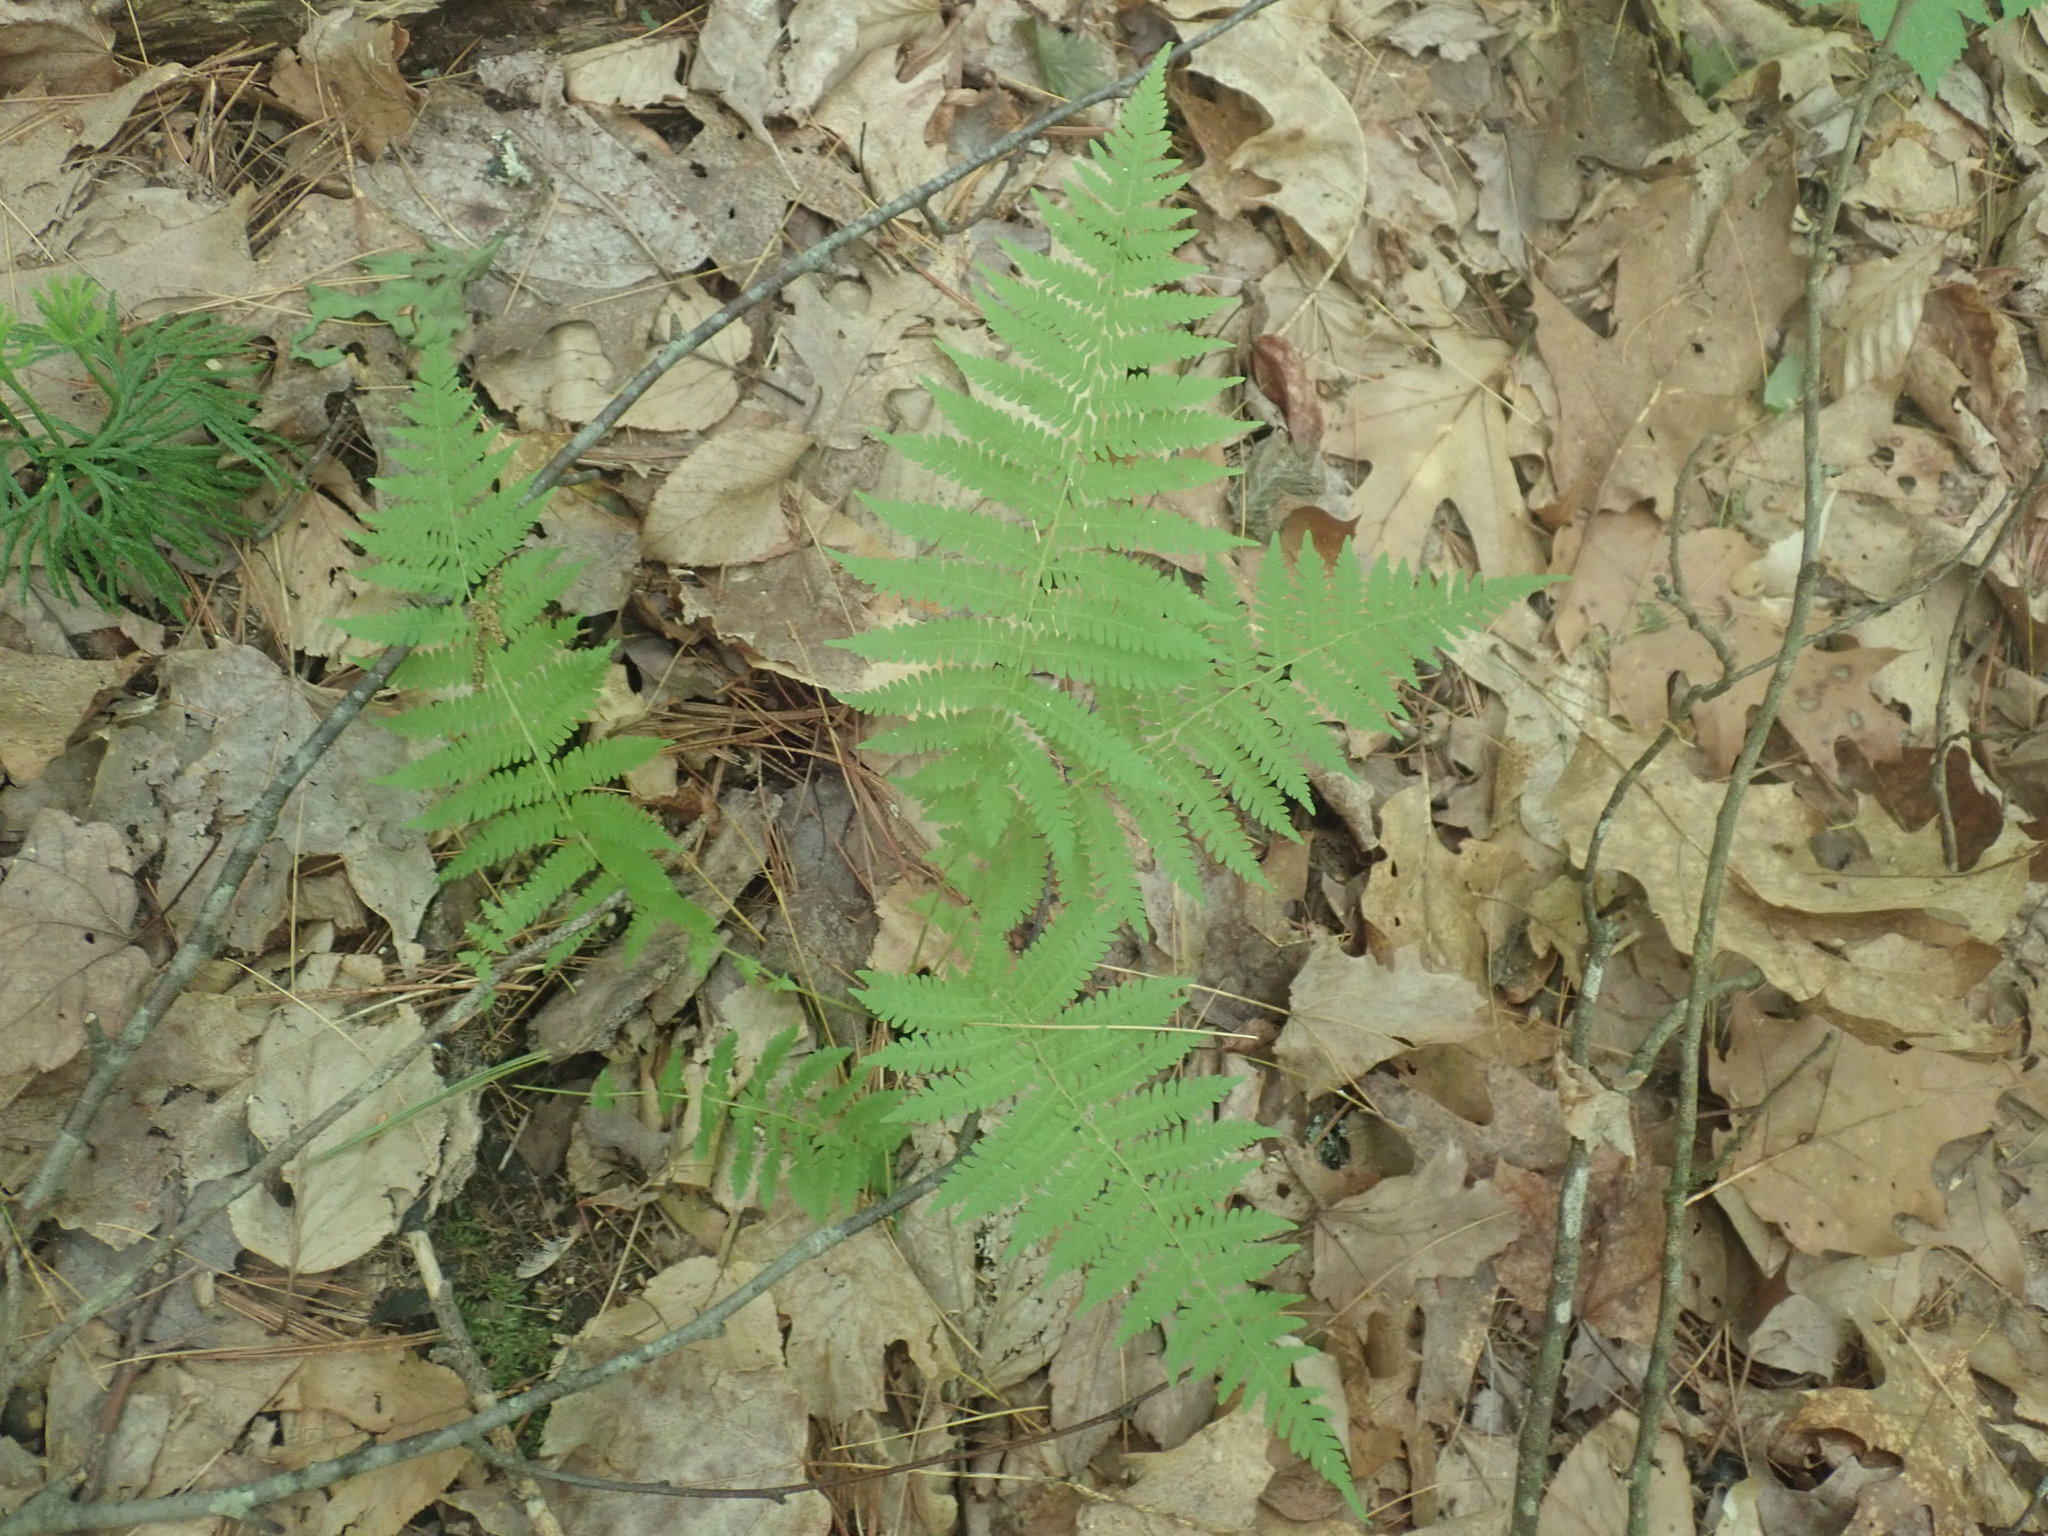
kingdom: Plantae
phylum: Tracheophyta
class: Polypodiopsida
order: Polypodiales
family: Thelypteridaceae
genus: Amauropelta
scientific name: Amauropelta noveboracensis
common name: New york fern
